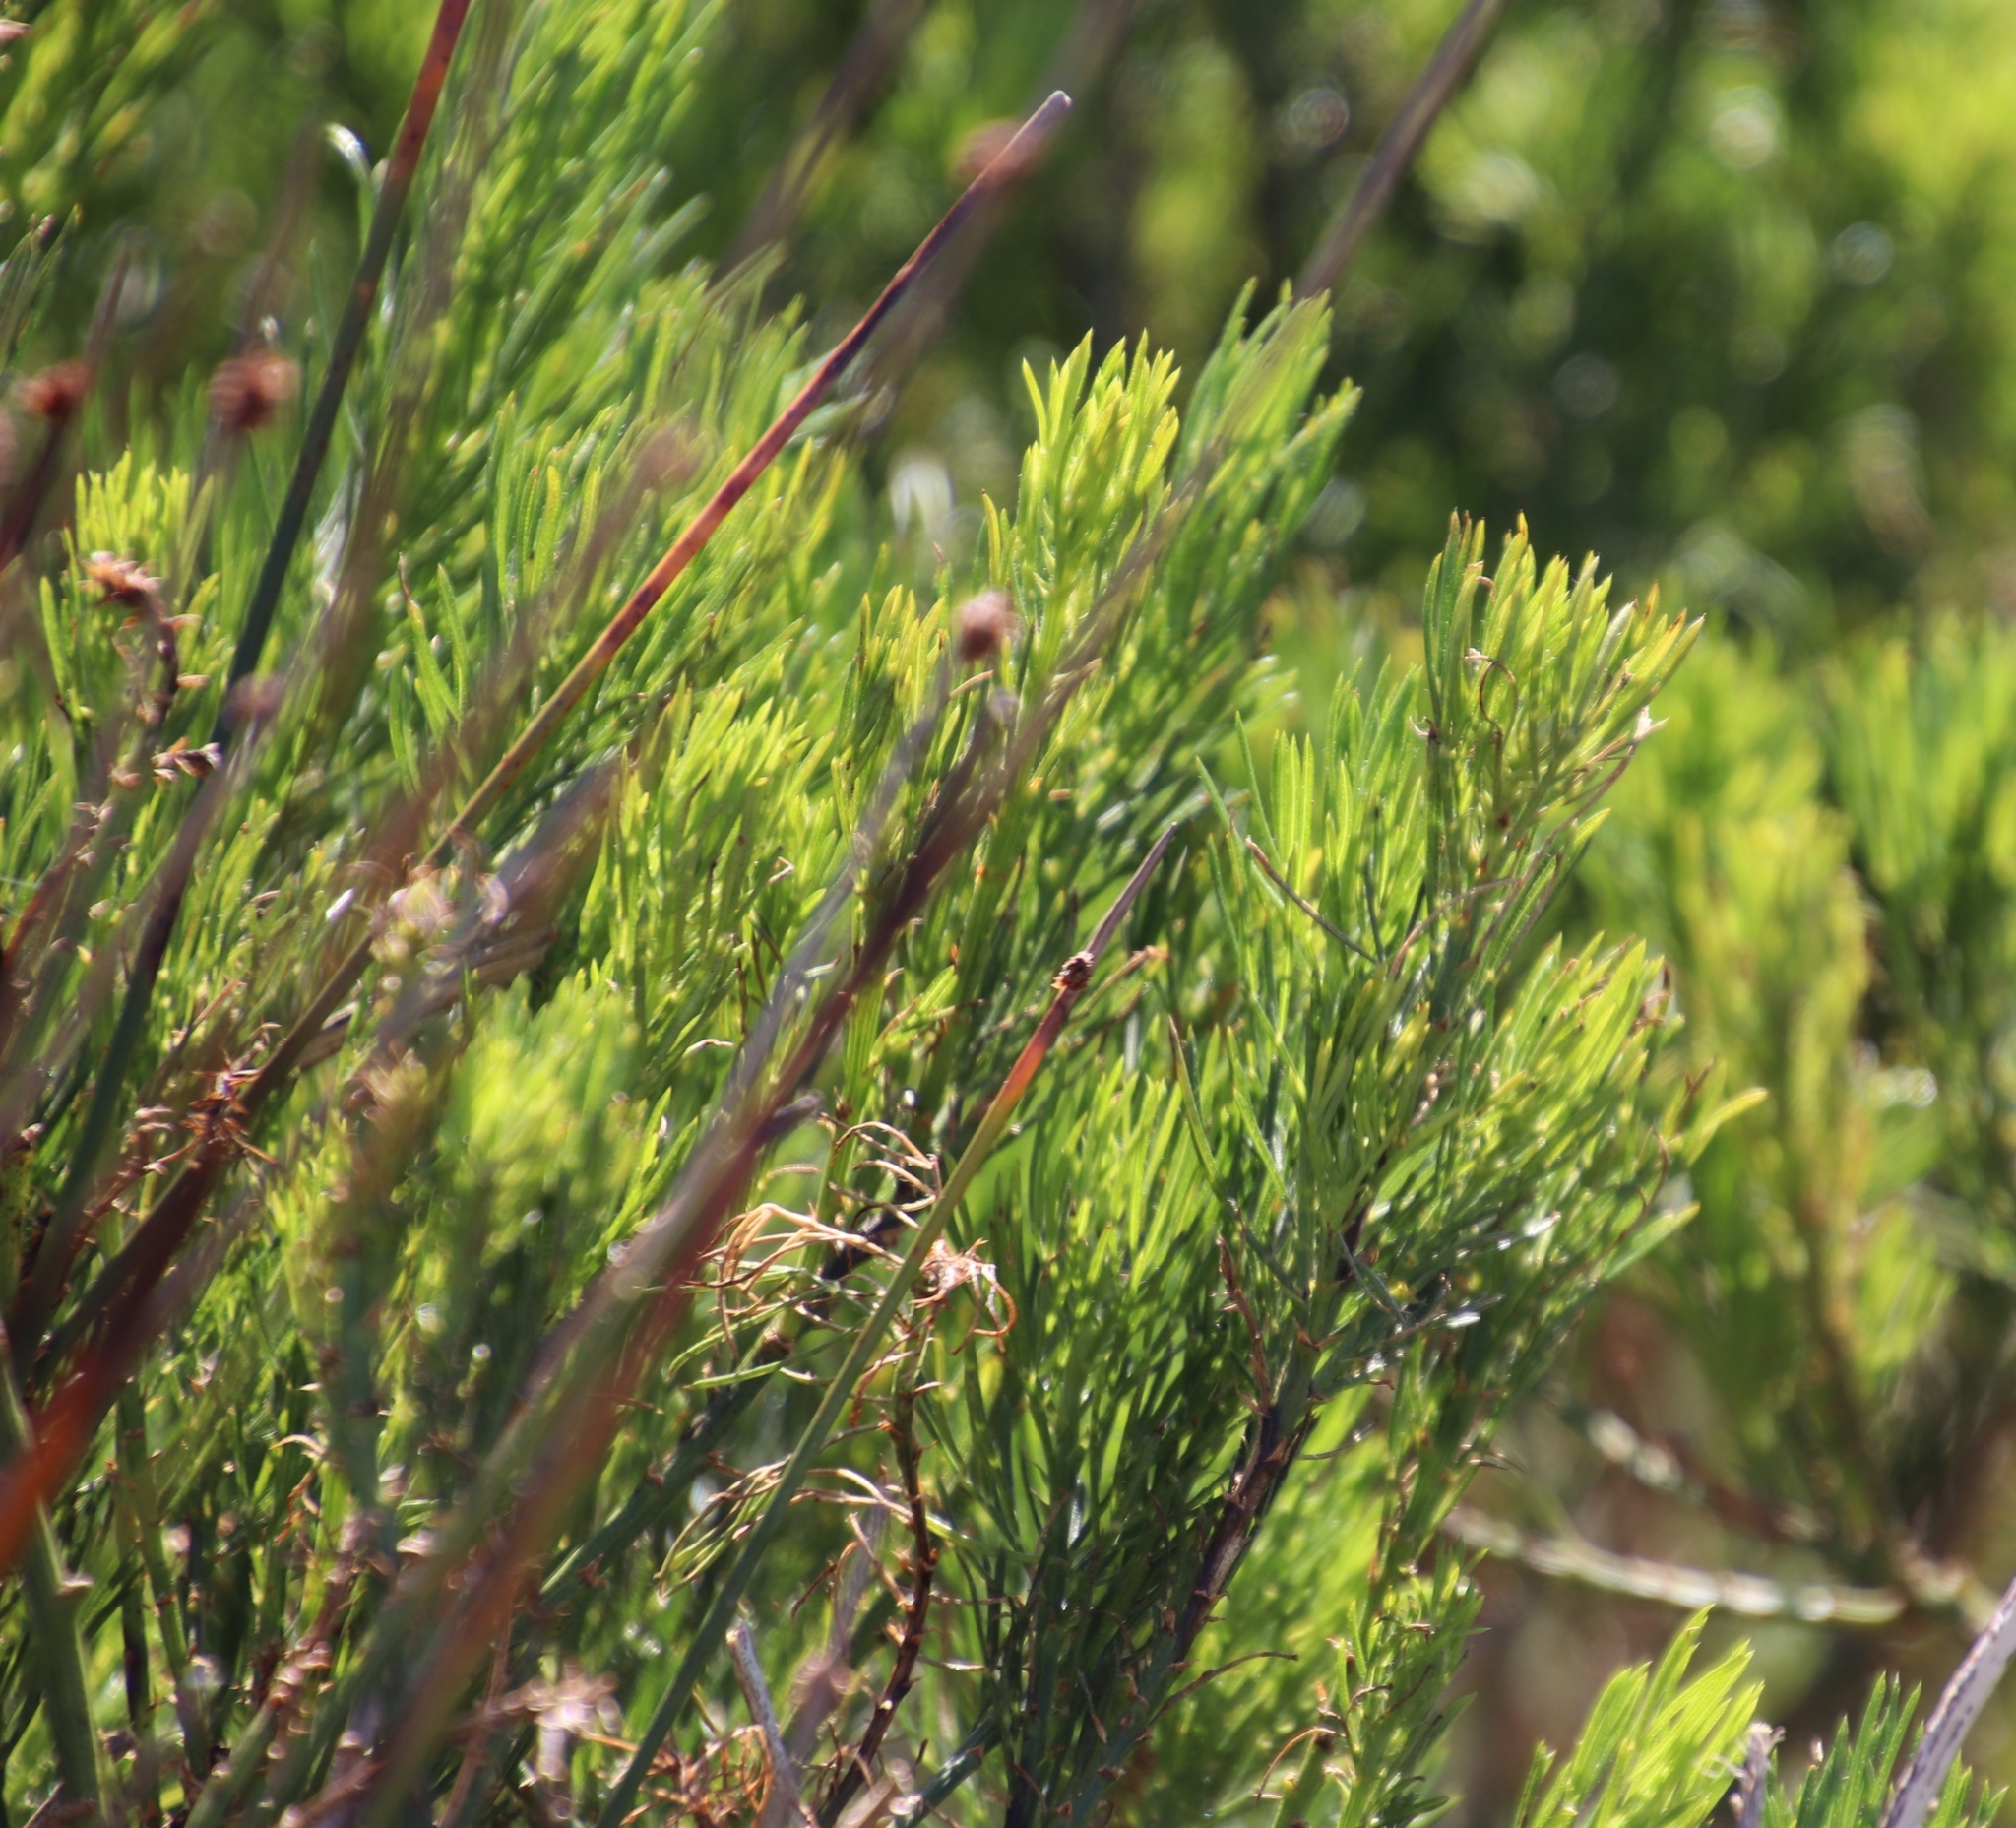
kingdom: Plantae
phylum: Tracheophyta
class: Magnoliopsida
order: Fabales
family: Fabaceae
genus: Psoralea
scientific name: Psoralea pinnata
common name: African scurfpea
